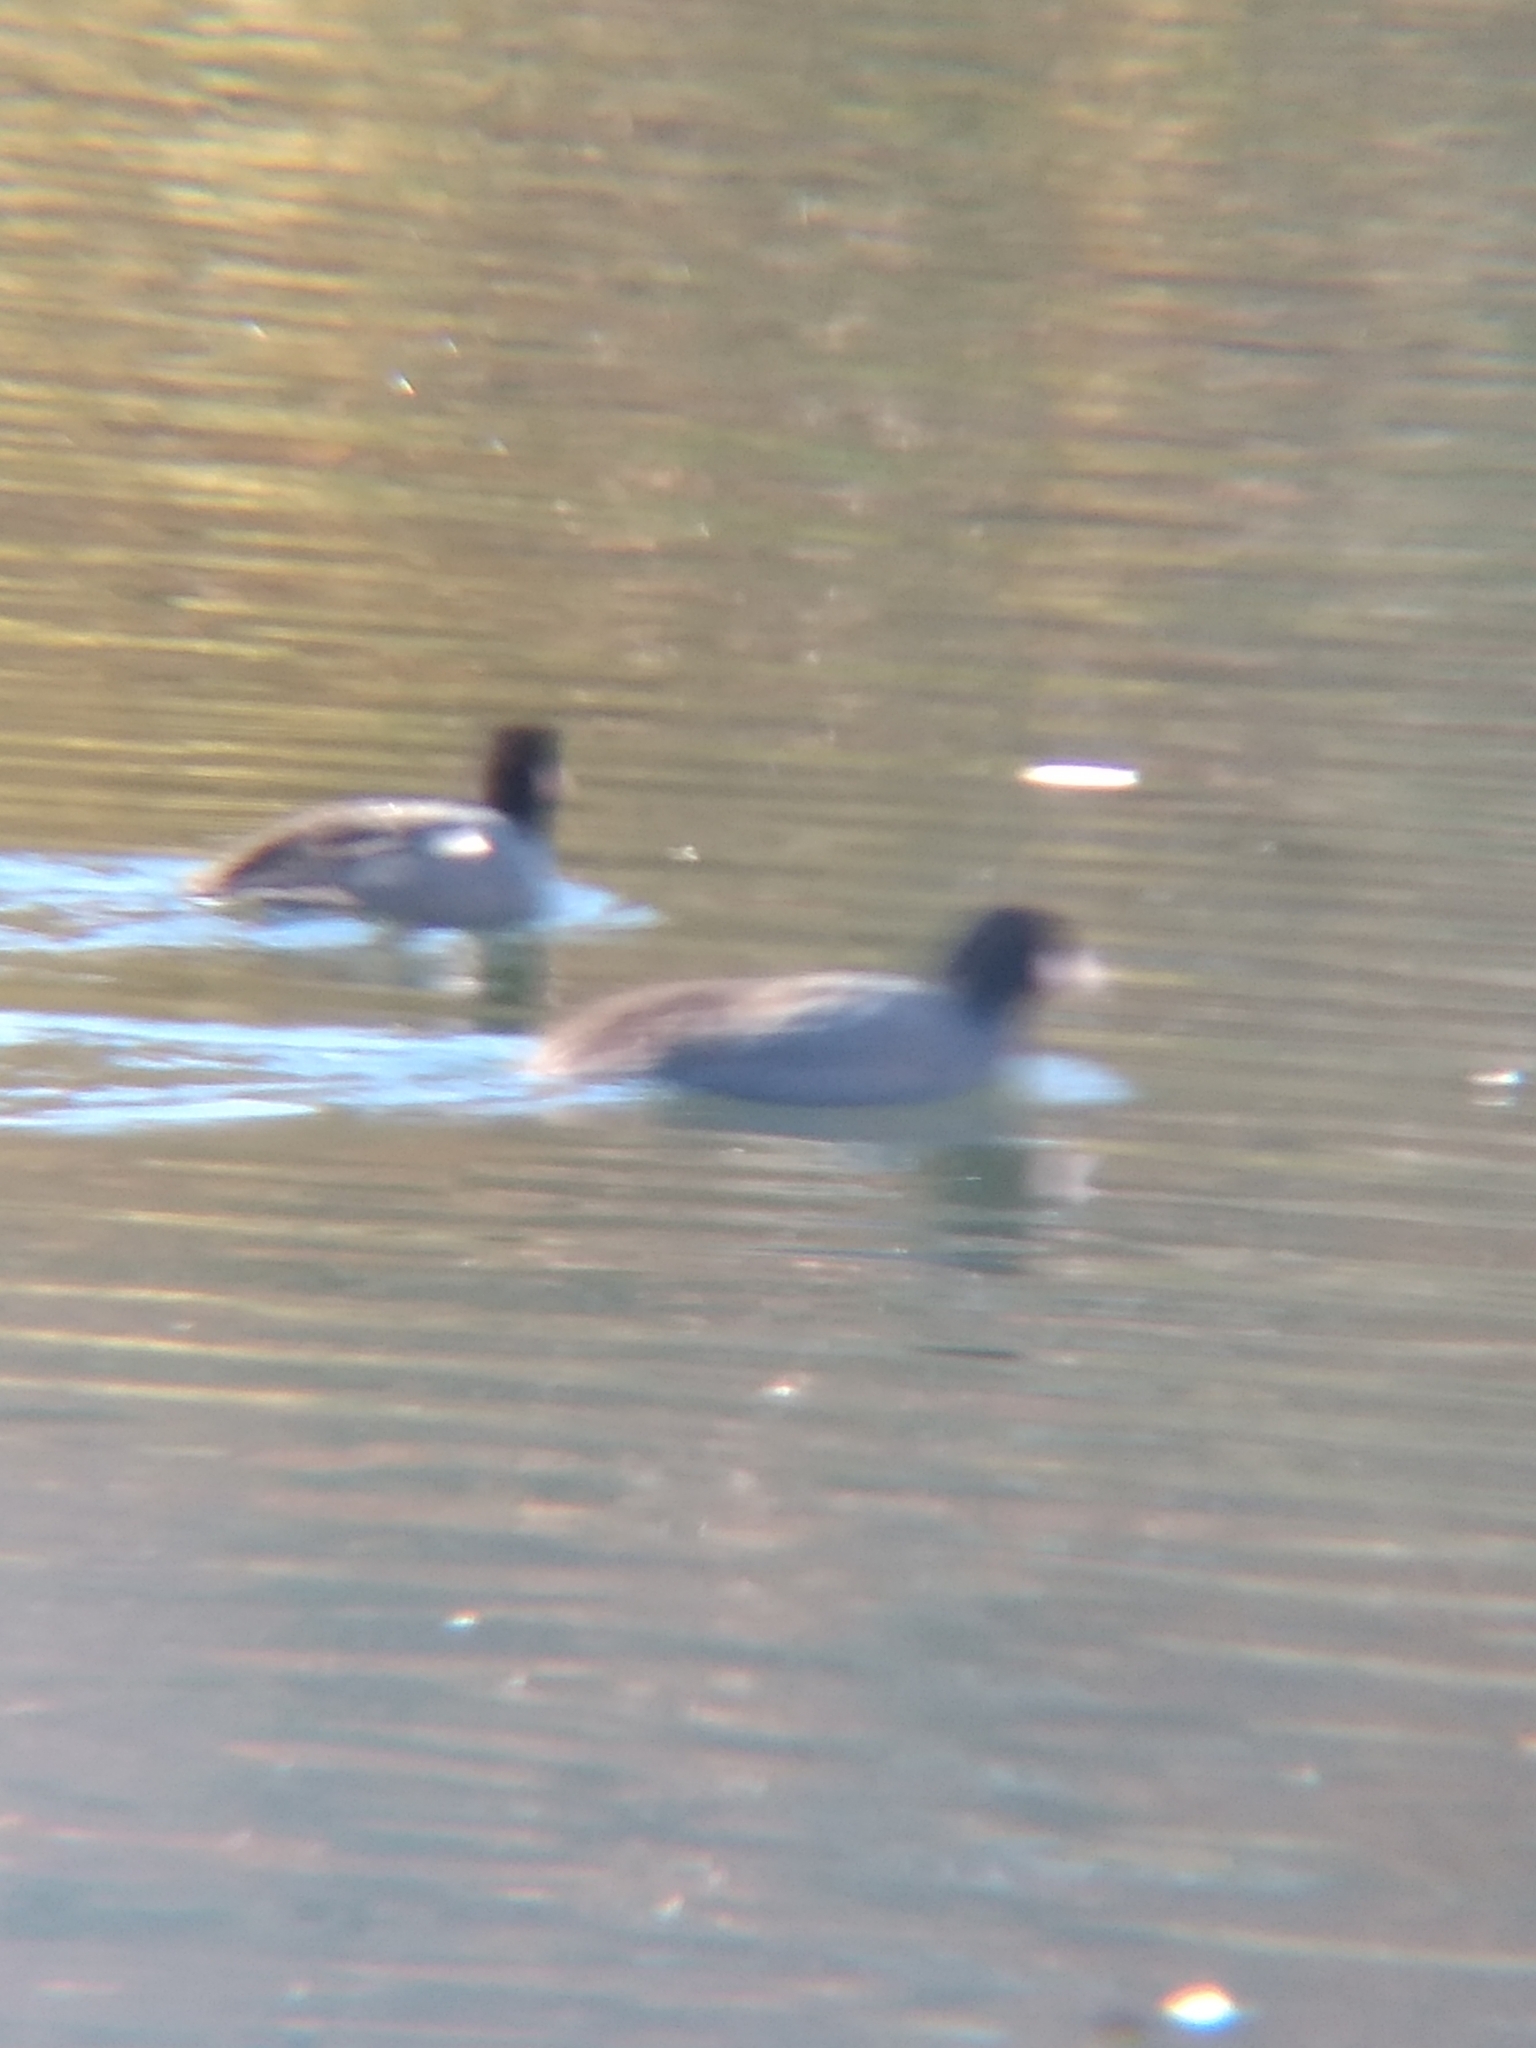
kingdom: Animalia
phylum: Chordata
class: Aves
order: Gruiformes
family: Rallidae
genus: Fulica
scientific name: Fulica americana
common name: American coot
